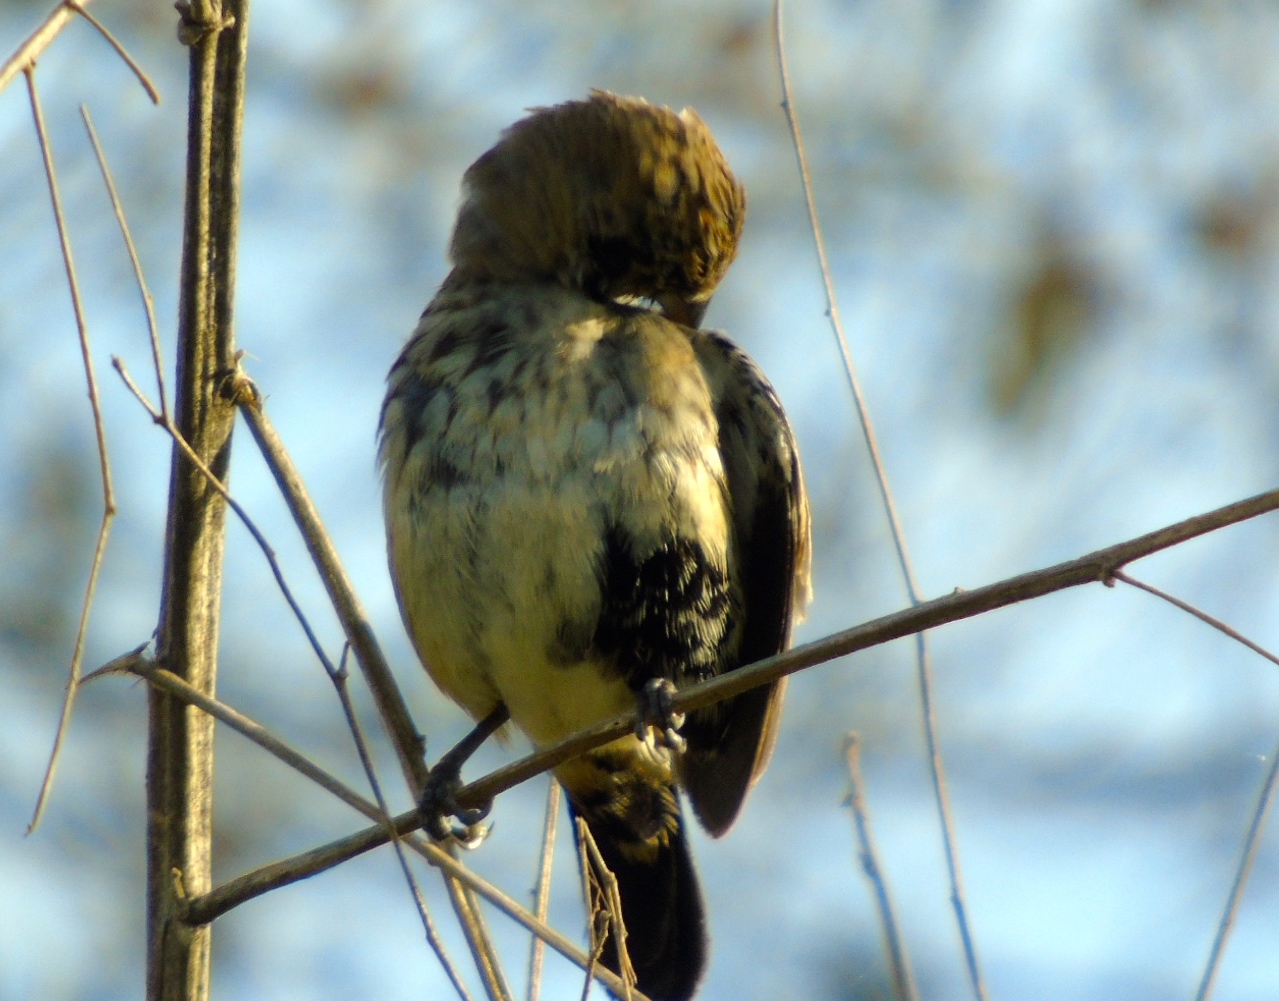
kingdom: Animalia
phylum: Chordata
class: Aves
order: Passeriformes
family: Thraupidae
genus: Volatinia
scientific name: Volatinia jacarina
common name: Blue-black grassquit
